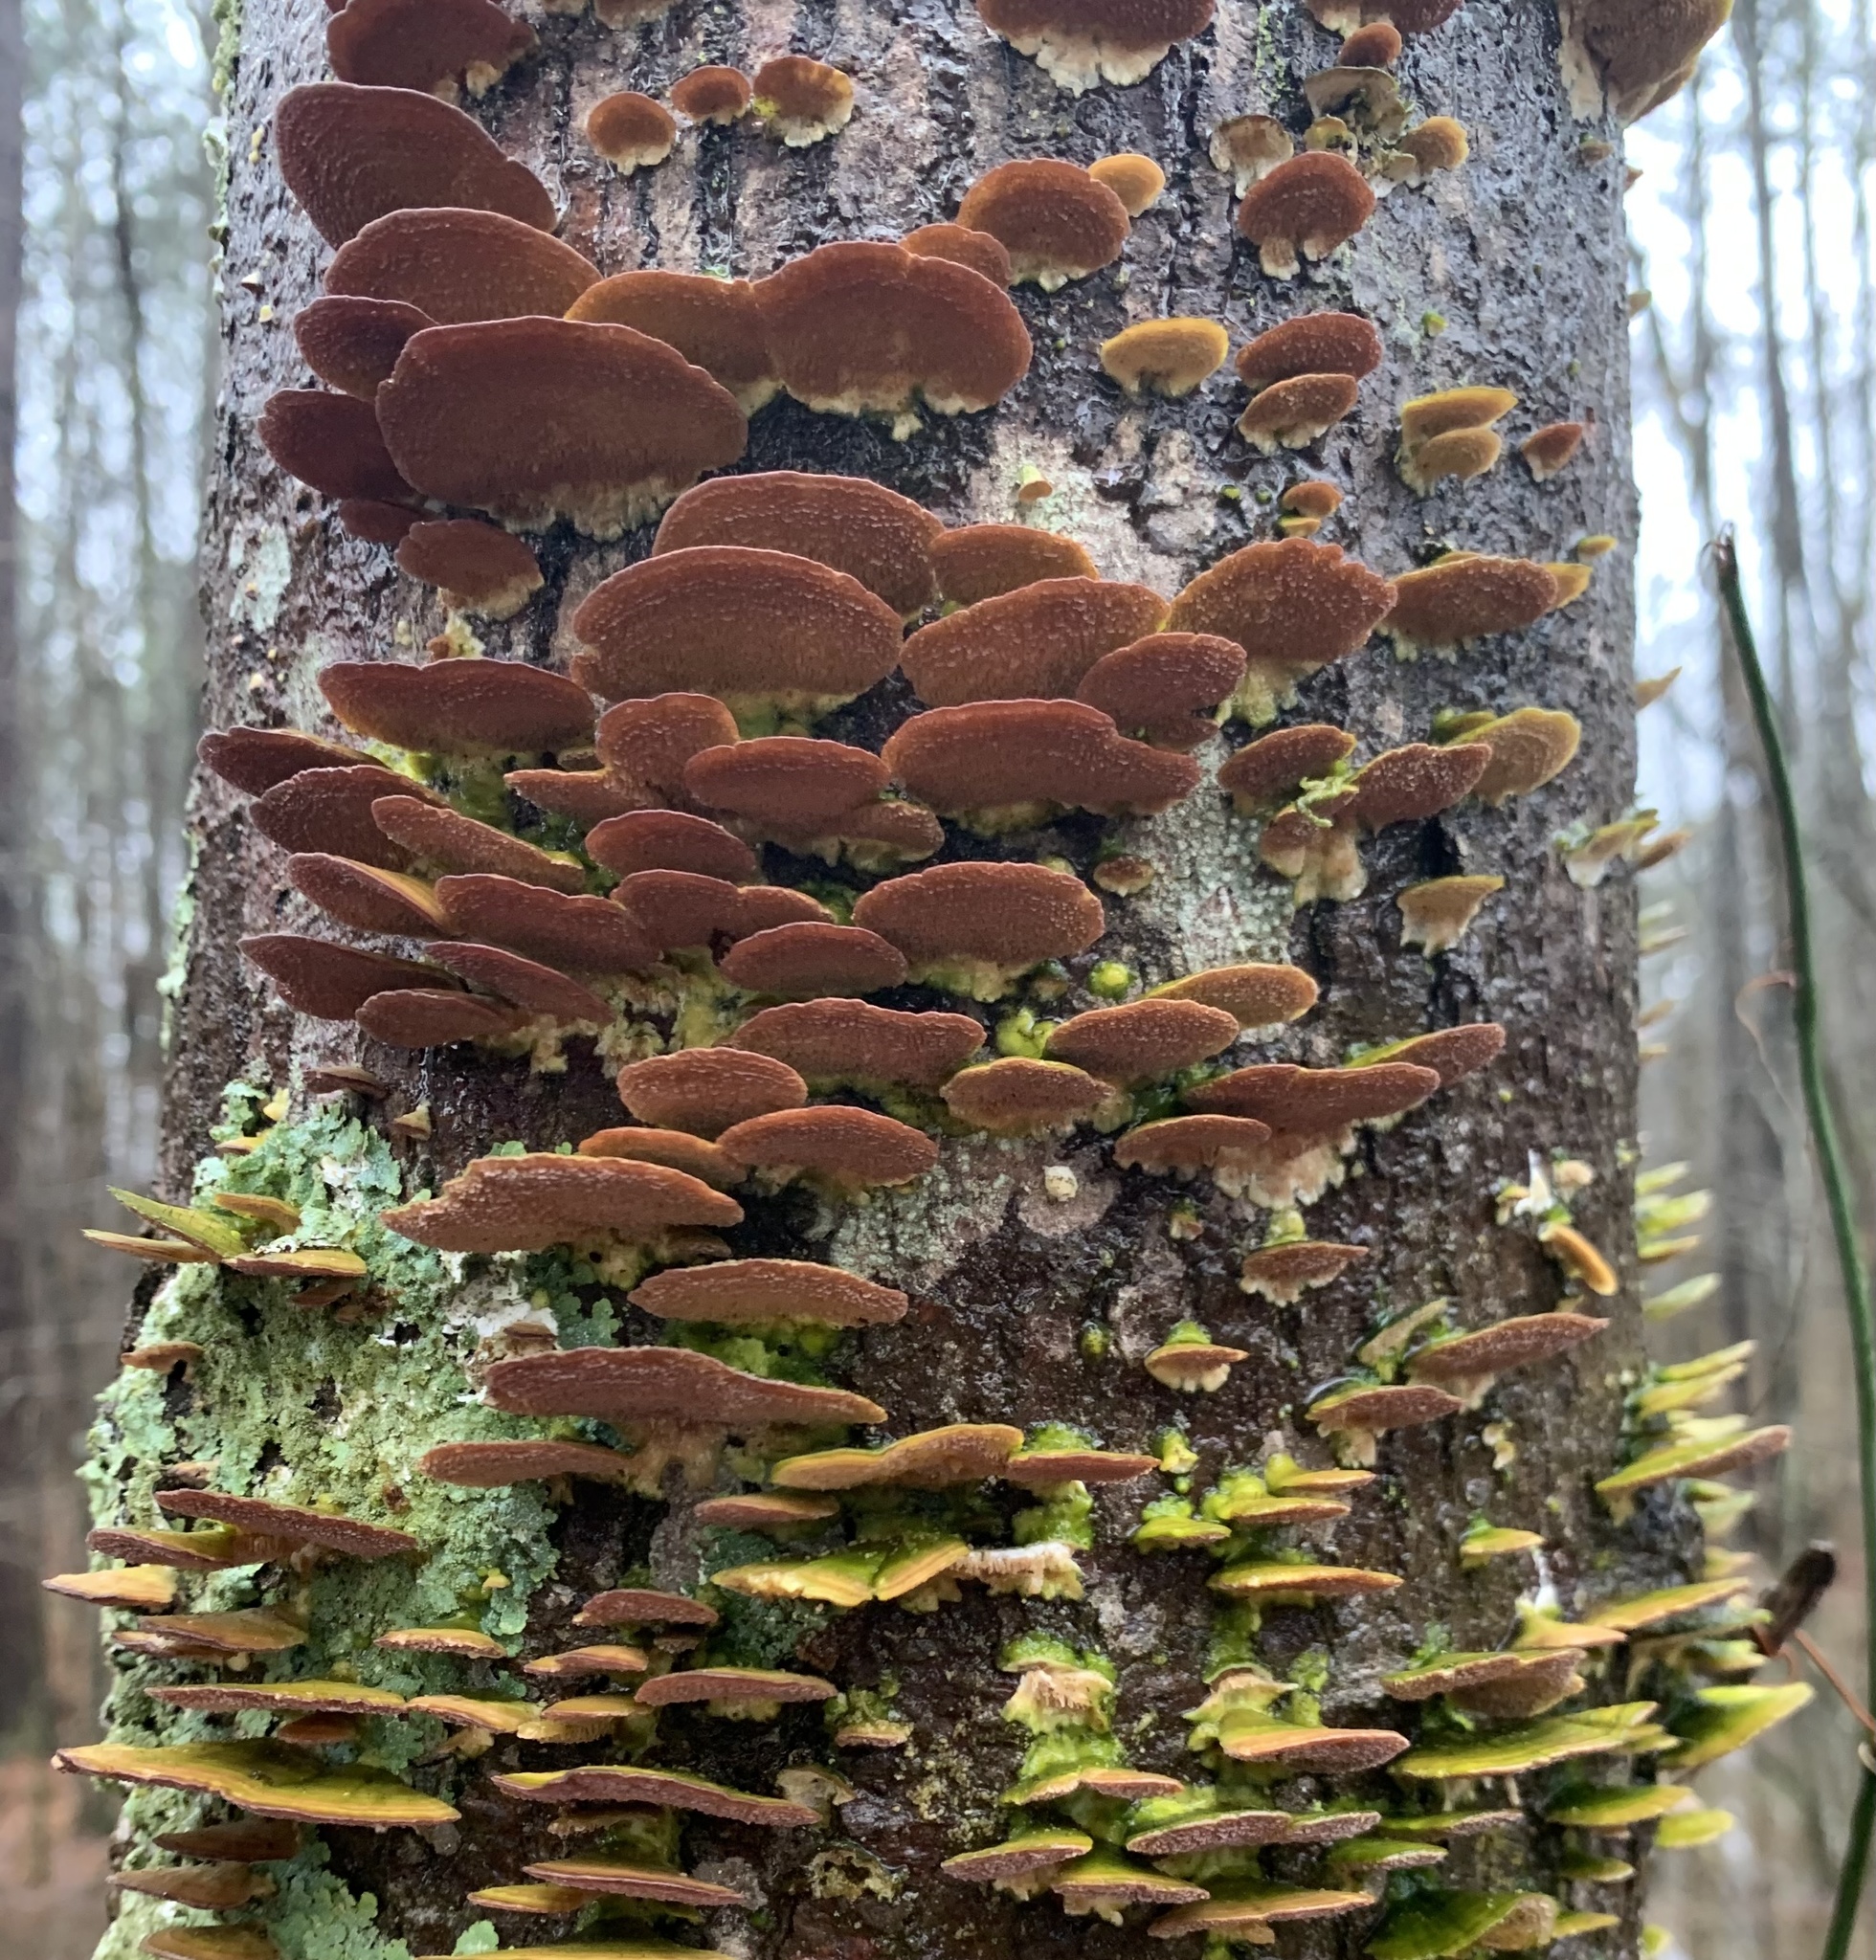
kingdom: Fungi
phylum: Basidiomycota
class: Agaricomycetes
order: Hymenochaetales
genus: Trichaptum
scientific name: Trichaptum biforme
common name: Violet-toothed polypore
